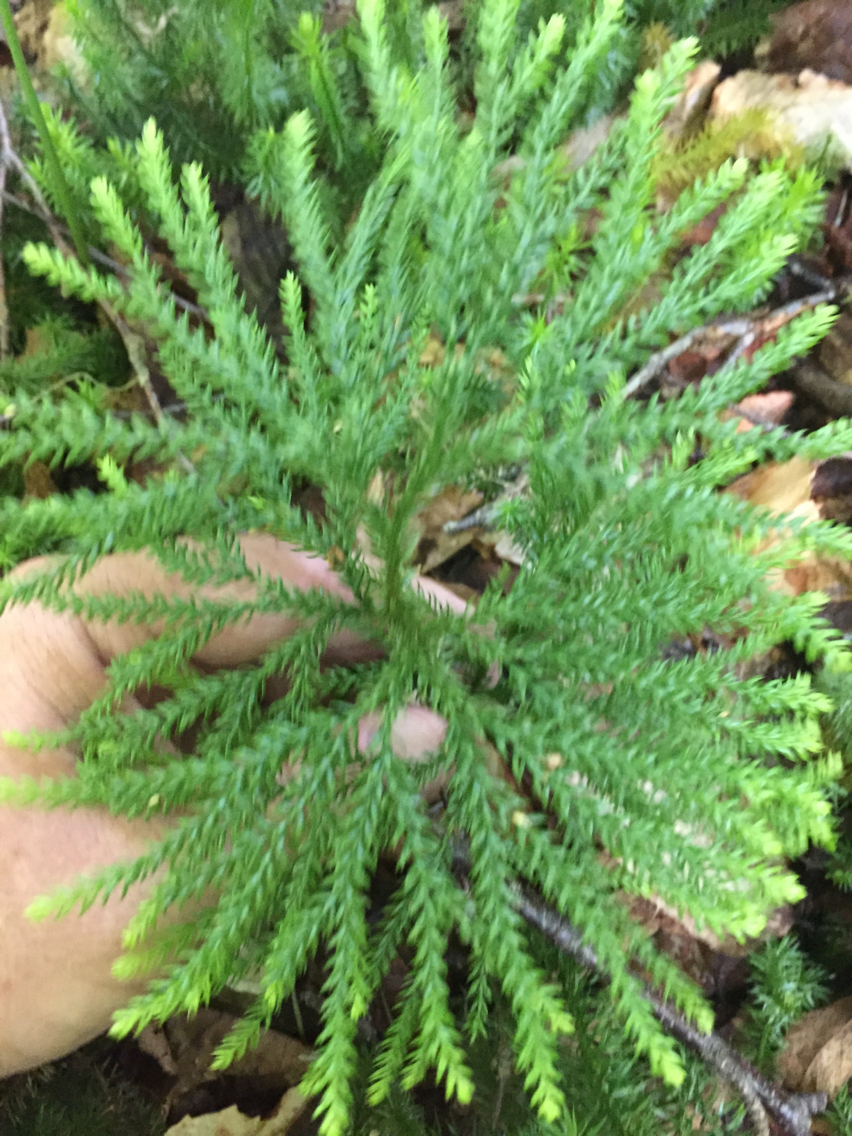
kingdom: Plantae
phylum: Tracheophyta
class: Lycopodiopsida
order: Lycopodiales
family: Lycopodiaceae
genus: Dendrolycopodium
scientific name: Dendrolycopodium obscurum
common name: Common ground-pine
